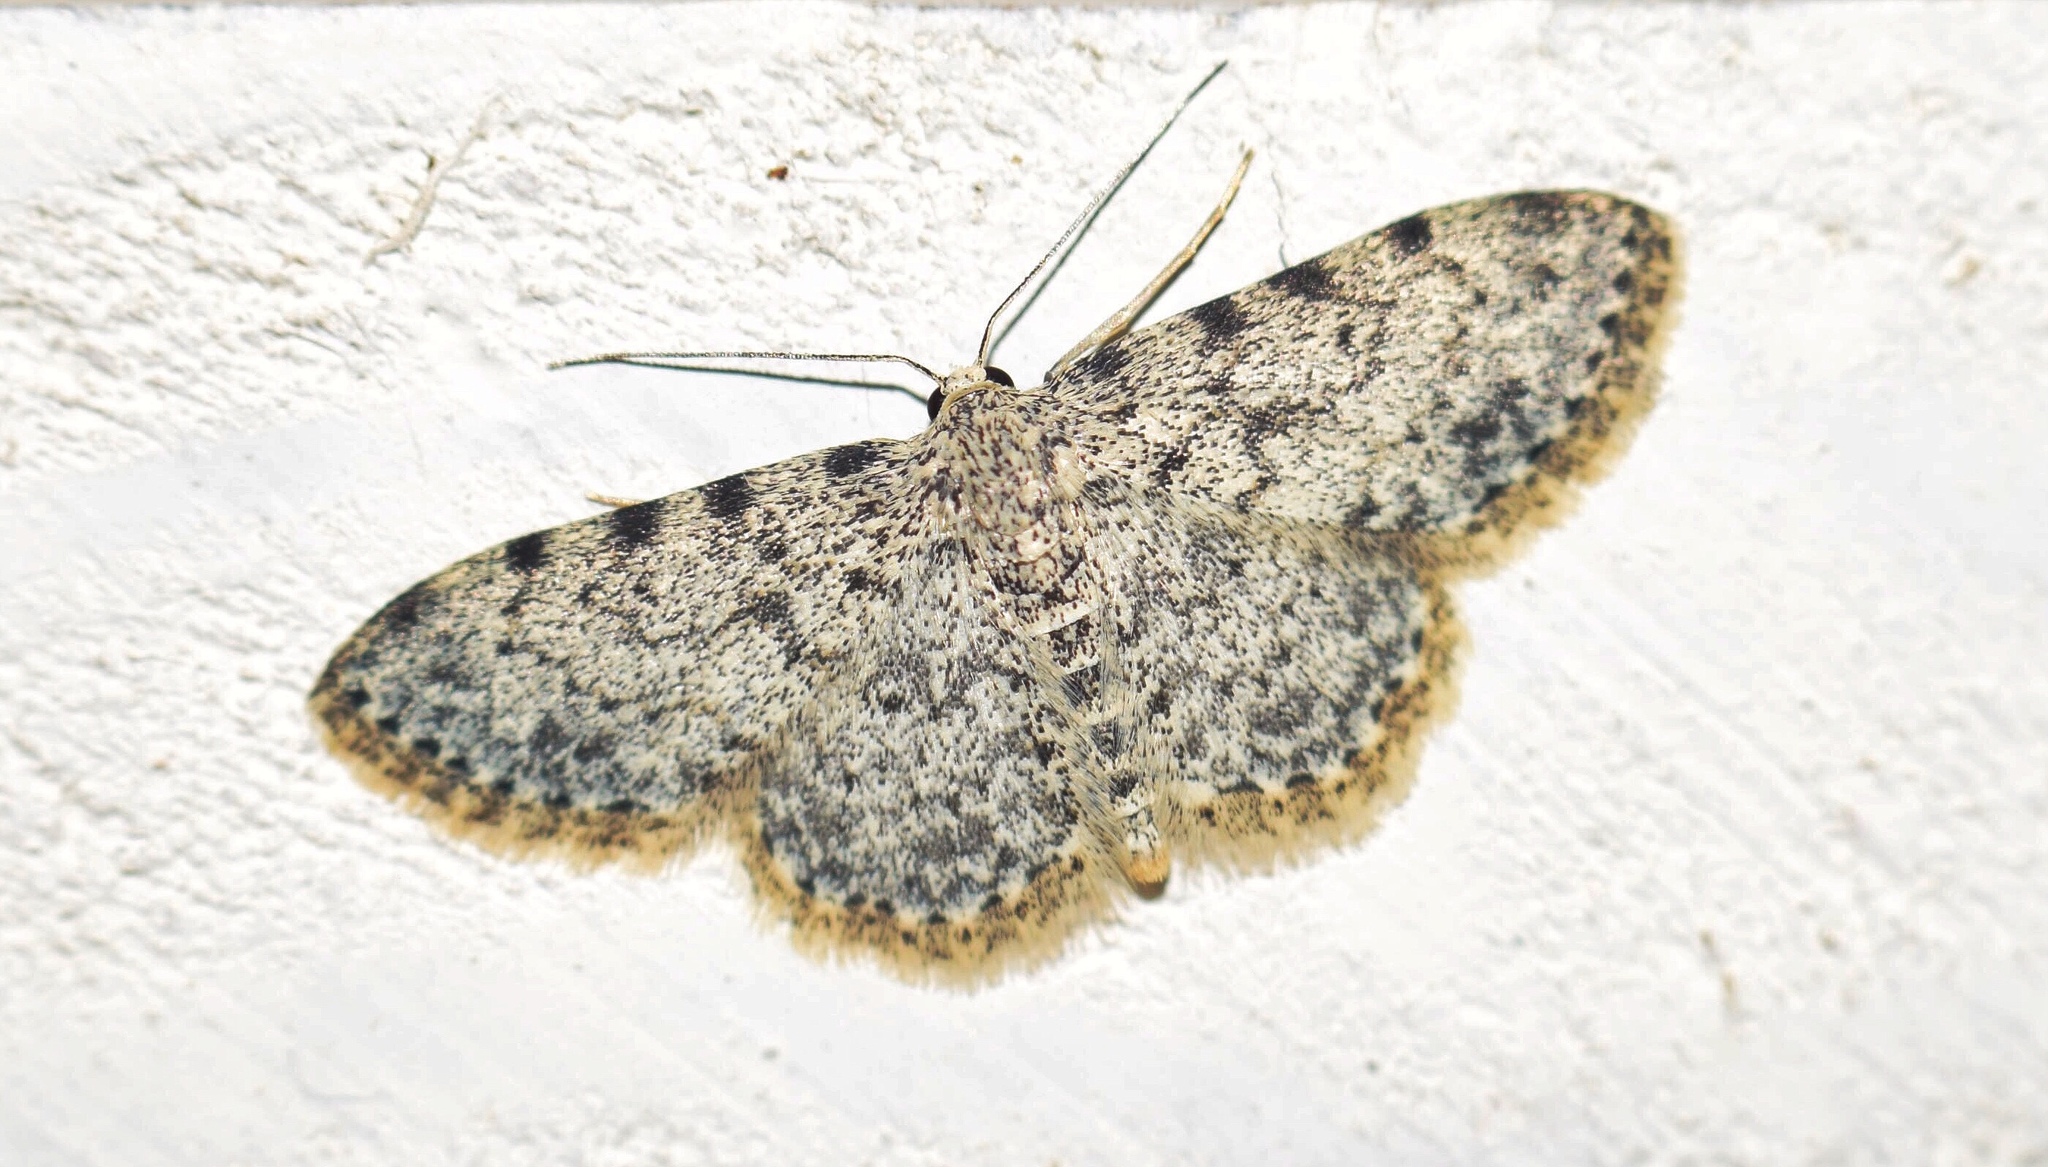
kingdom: Animalia
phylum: Arthropoda
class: Insecta
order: Lepidoptera
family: Geometridae
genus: Scopula
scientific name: Scopula nigrinotata
